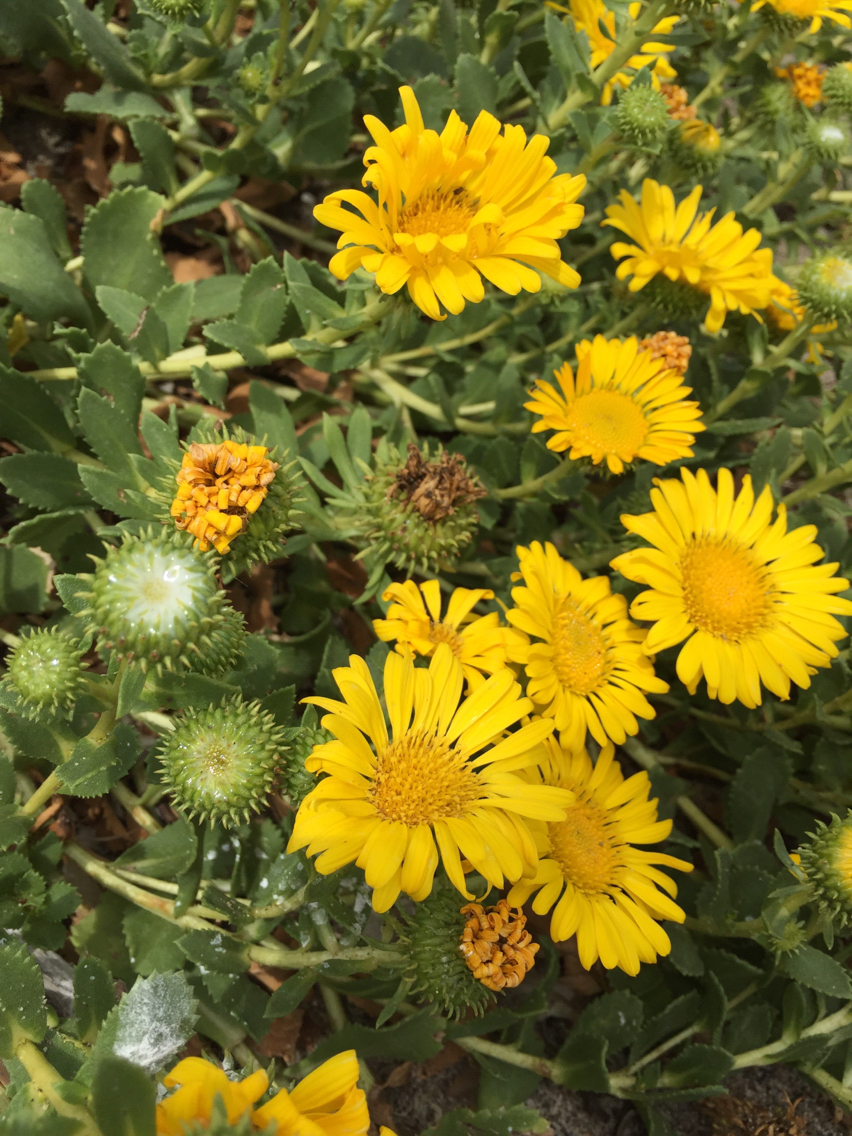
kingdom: Plantae
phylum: Tracheophyta
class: Magnoliopsida
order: Asterales
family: Asteraceae
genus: Grindelia
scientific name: Grindelia hirsutula
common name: Hairy gumweed
